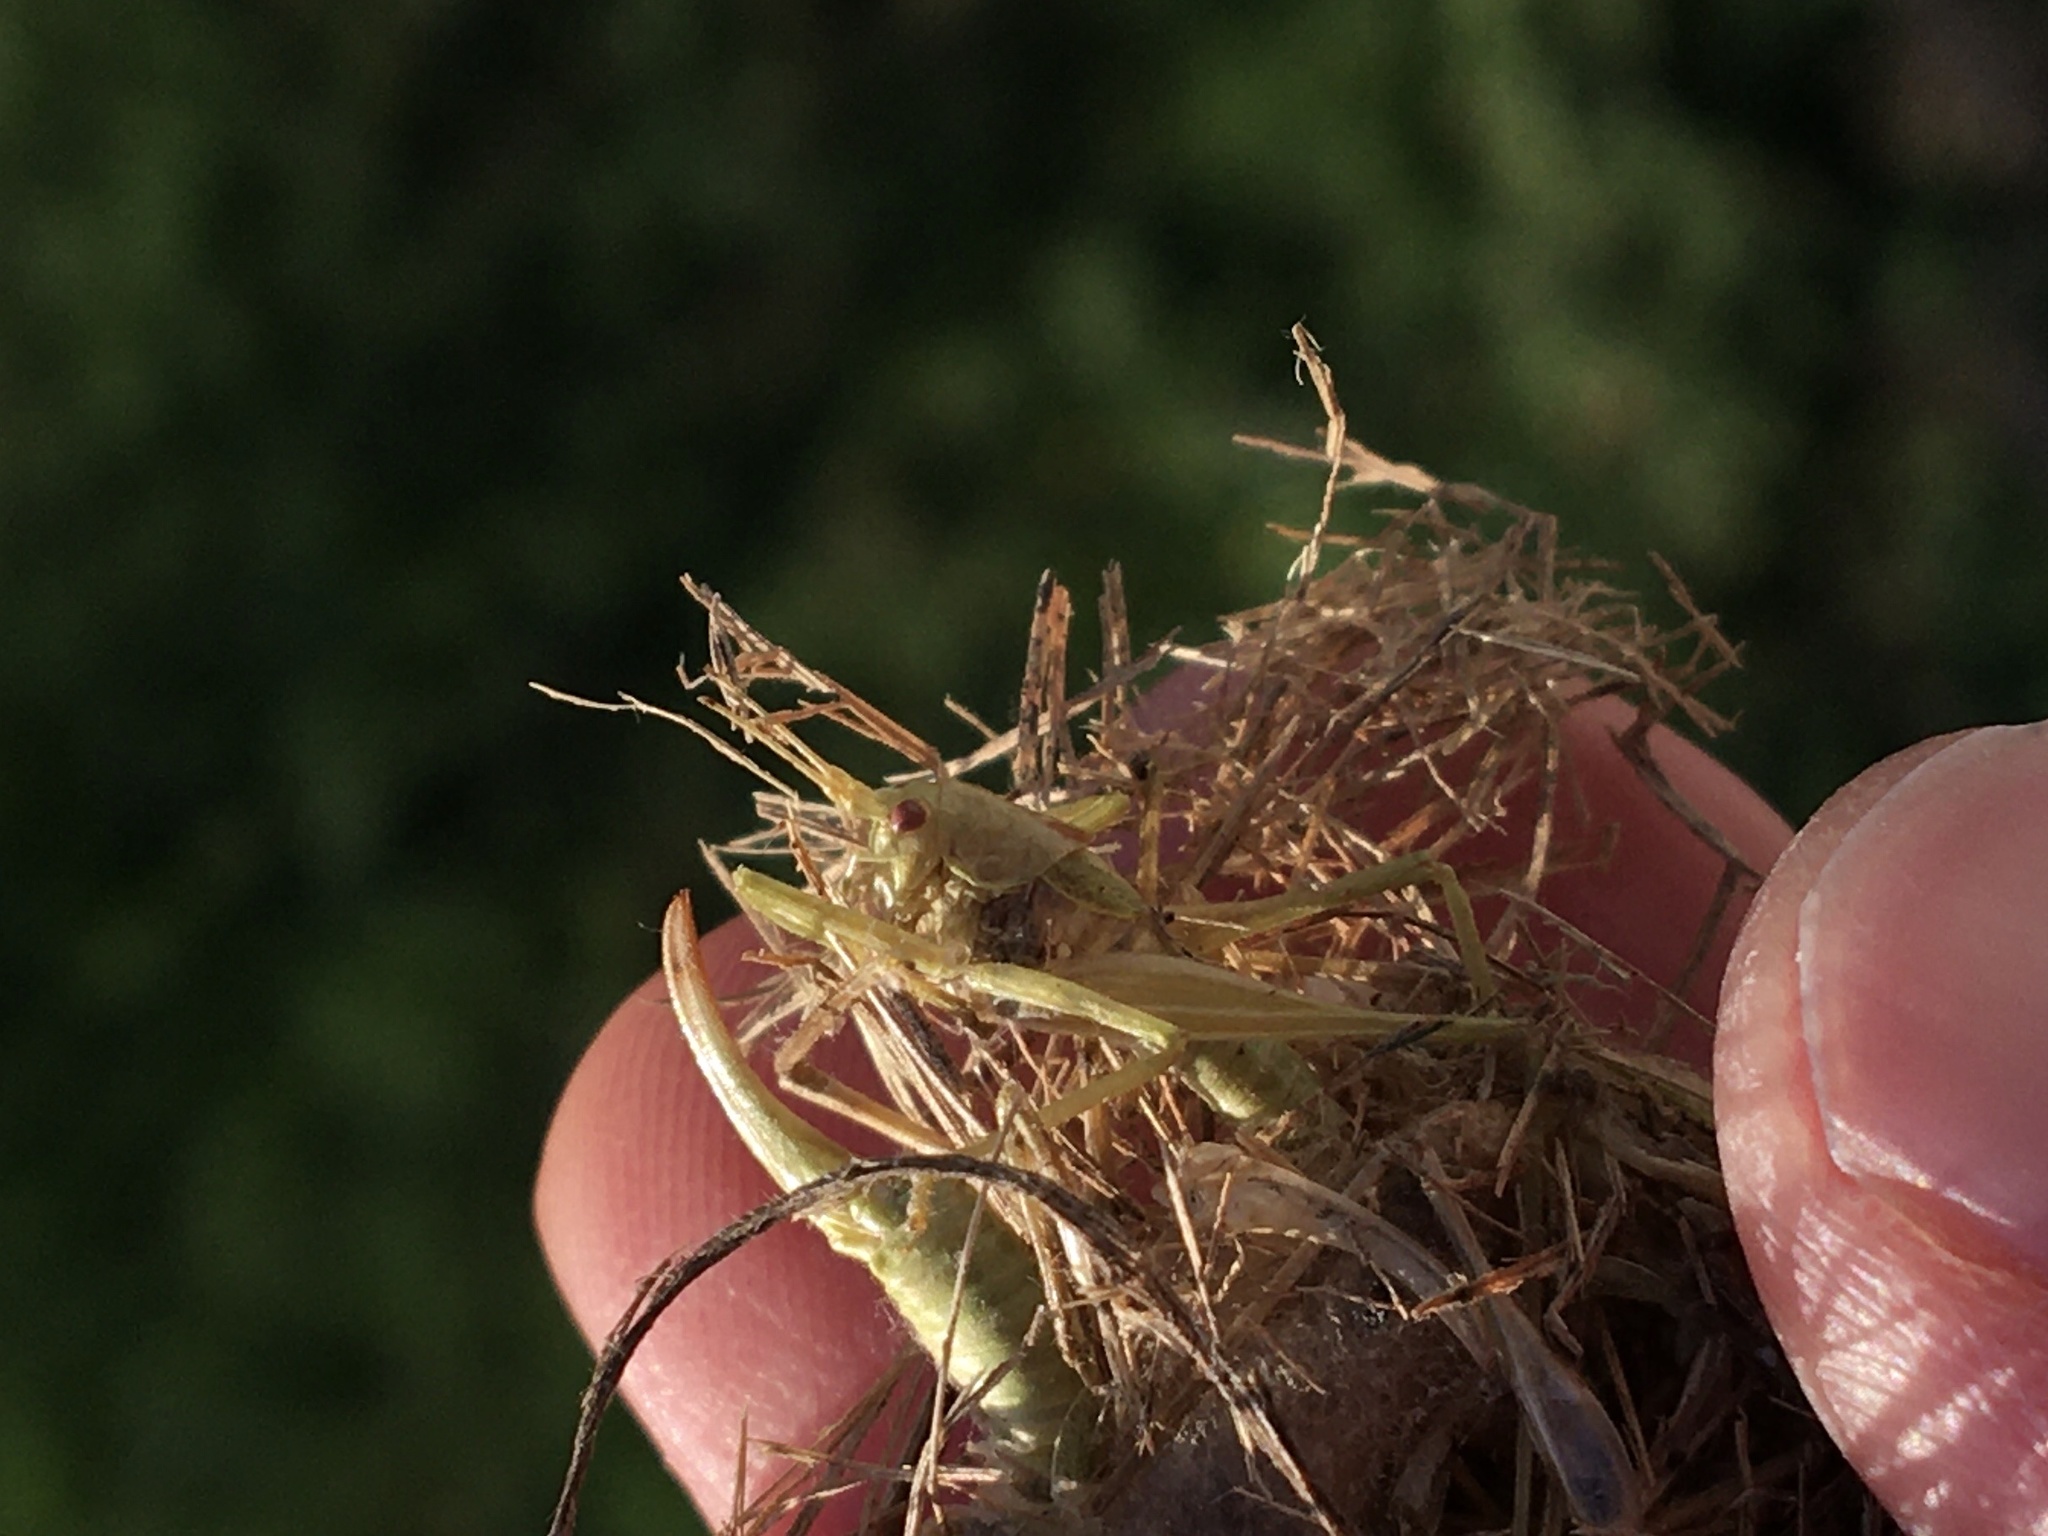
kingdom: Animalia
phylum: Arthropoda
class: Insecta
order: Orthoptera
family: Tettigoniidae
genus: Meconema
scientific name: Meconema meridionale
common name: Southern oak bush-cricket
